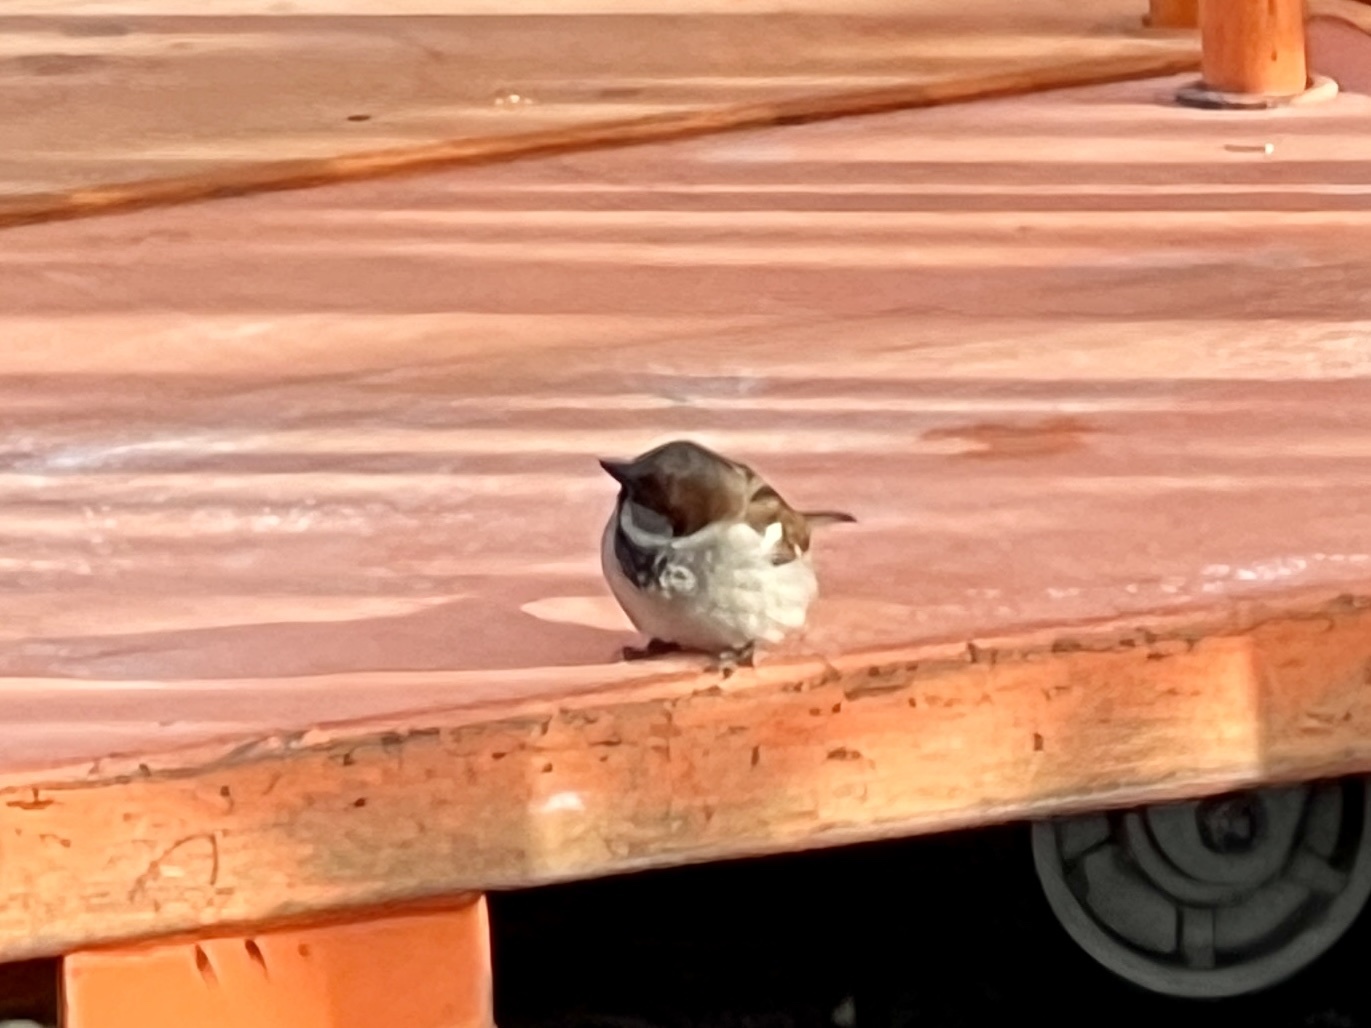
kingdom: Animalia
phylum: Chordata
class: Aves
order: Passeriformes
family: Passeridae
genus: Passer
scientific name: Passer domesticus
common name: House sparrow
